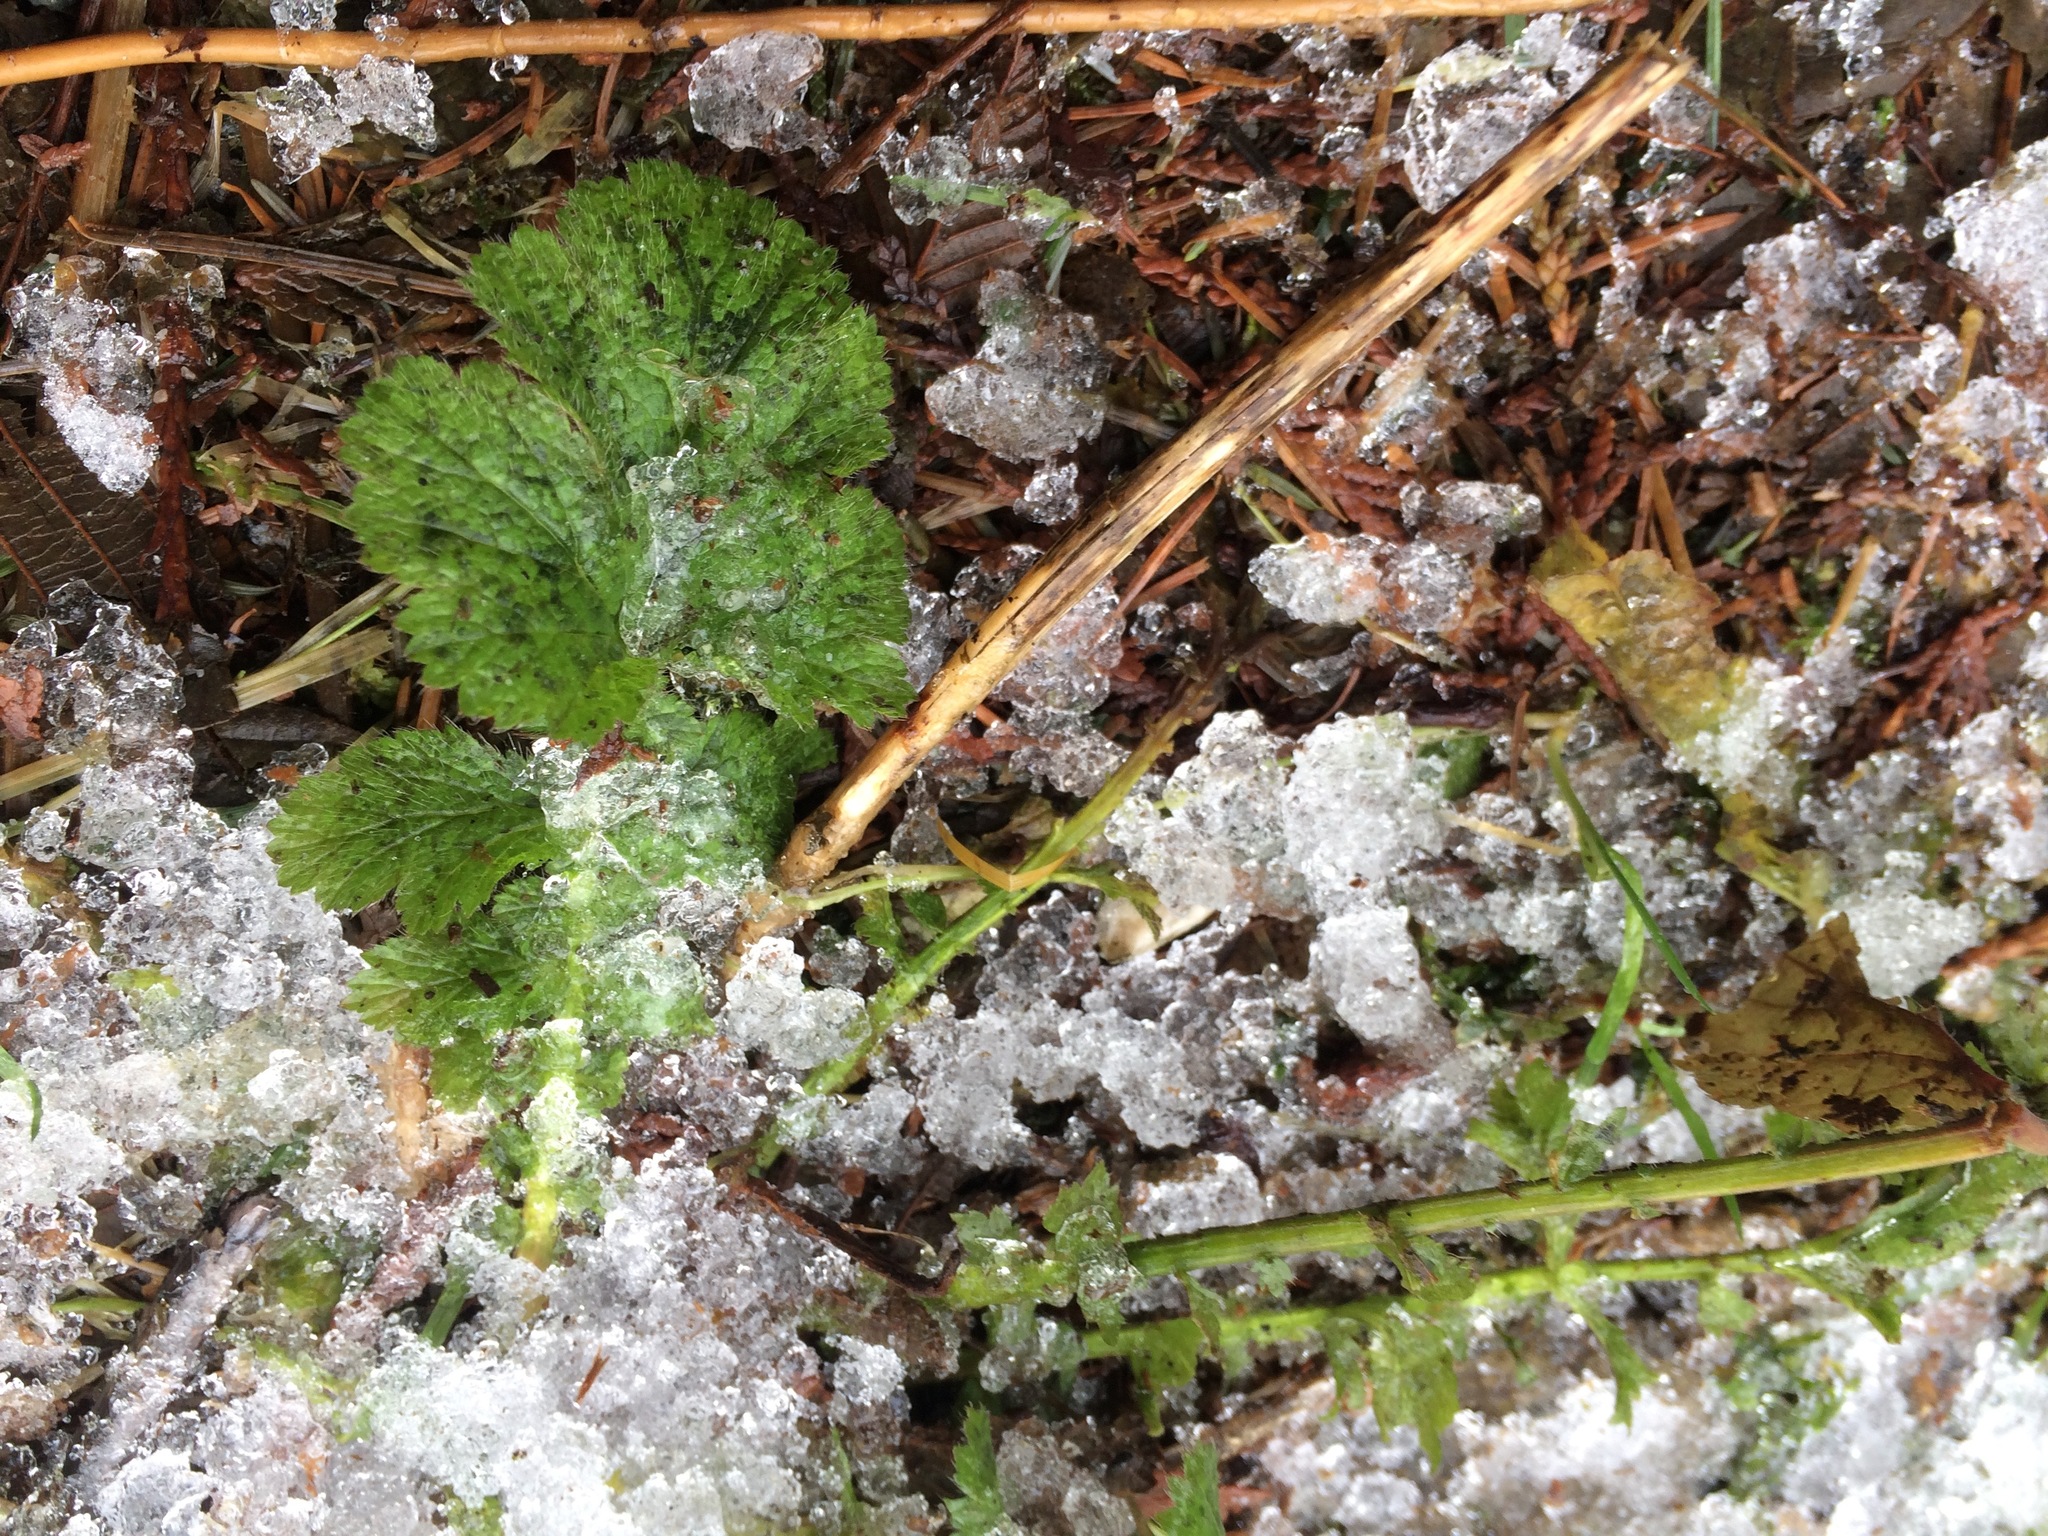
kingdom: Plantae
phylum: Tracheophyta
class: Magnoliopsida
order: Rosales
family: Rosaceae
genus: Geum
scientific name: Geum macrophyllum
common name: Large-leaved avens
